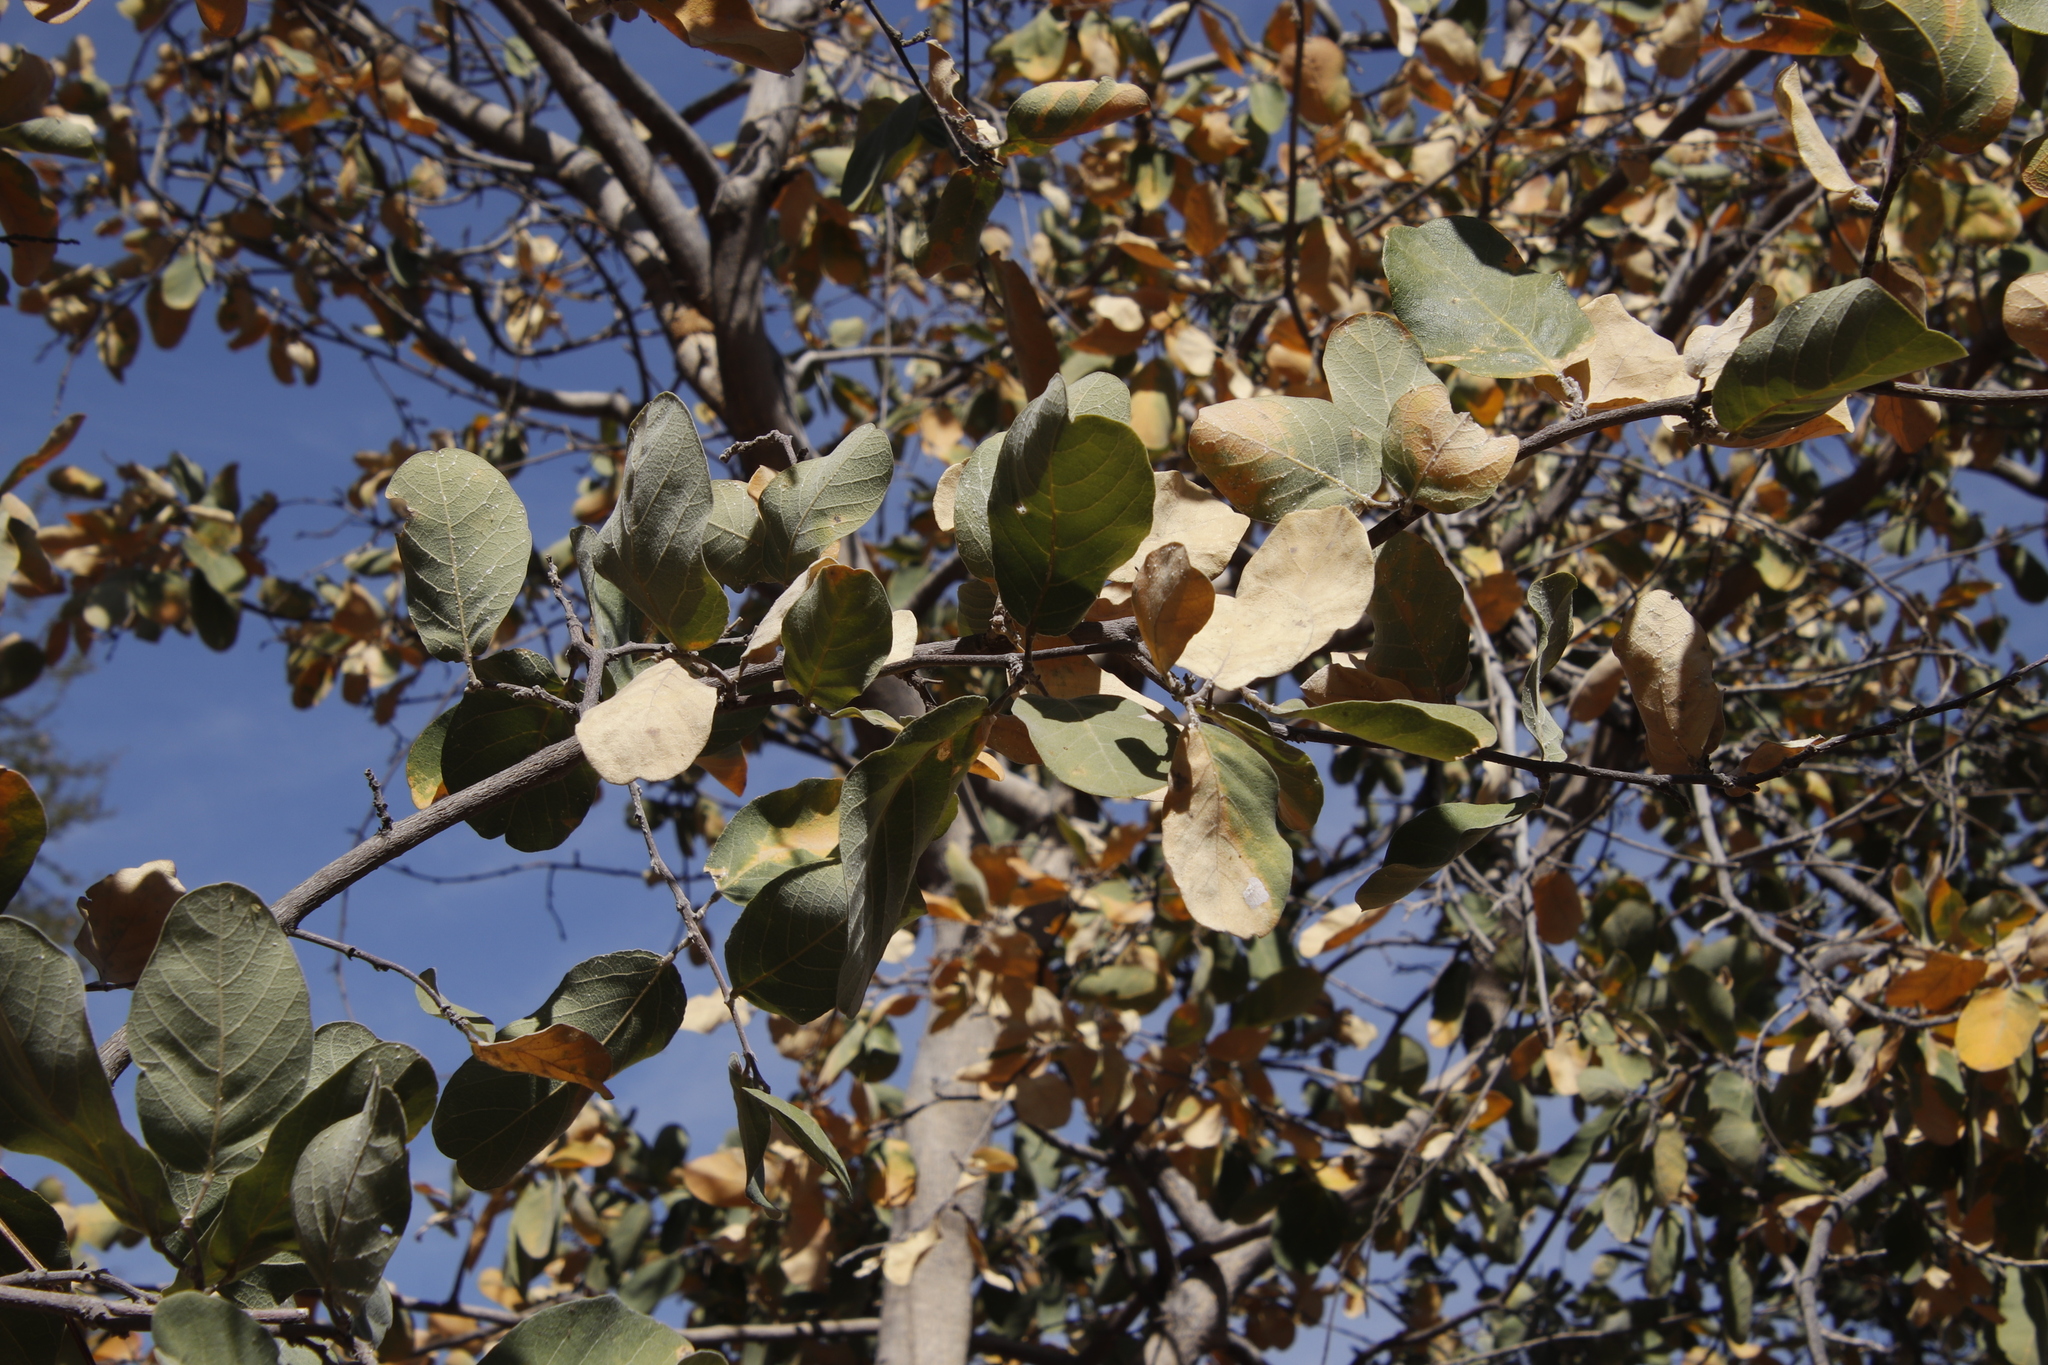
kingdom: Plantae
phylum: Tracheophyta
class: Magnoliopsida
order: Fabales
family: Fabaceae
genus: Pterocarpus
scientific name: Pterocarpus rotundifolius
